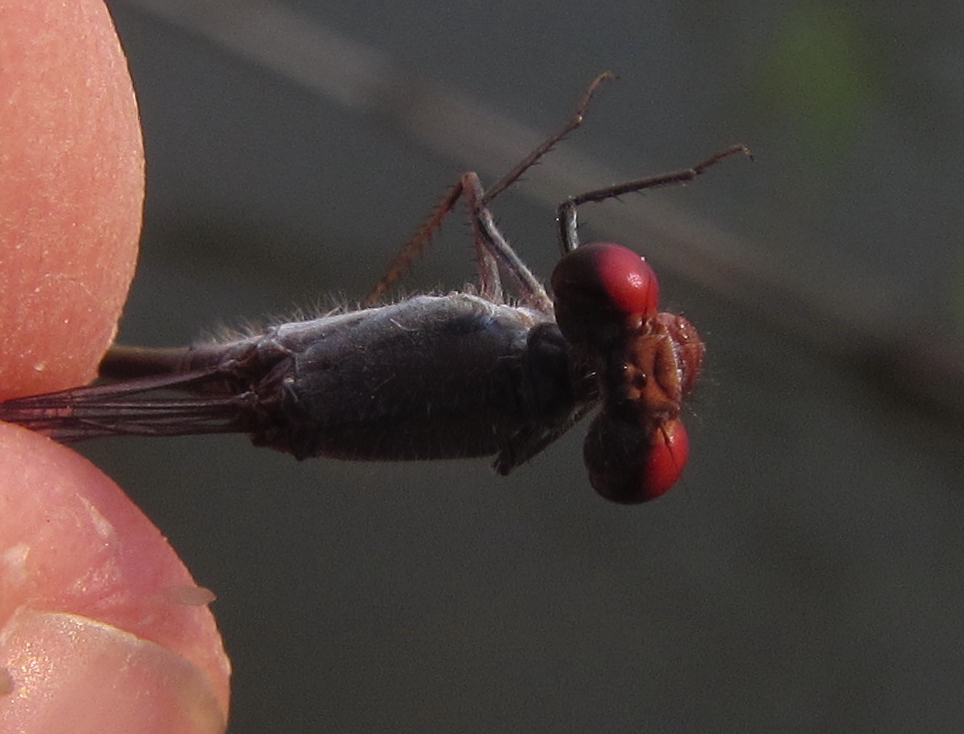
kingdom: Animalia
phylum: Arthropoda
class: Insecta
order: Odonata
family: Coenagrionidae
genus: Pseudagrion
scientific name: Pseudagrion sublacteum
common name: Cherry-eye sprite
